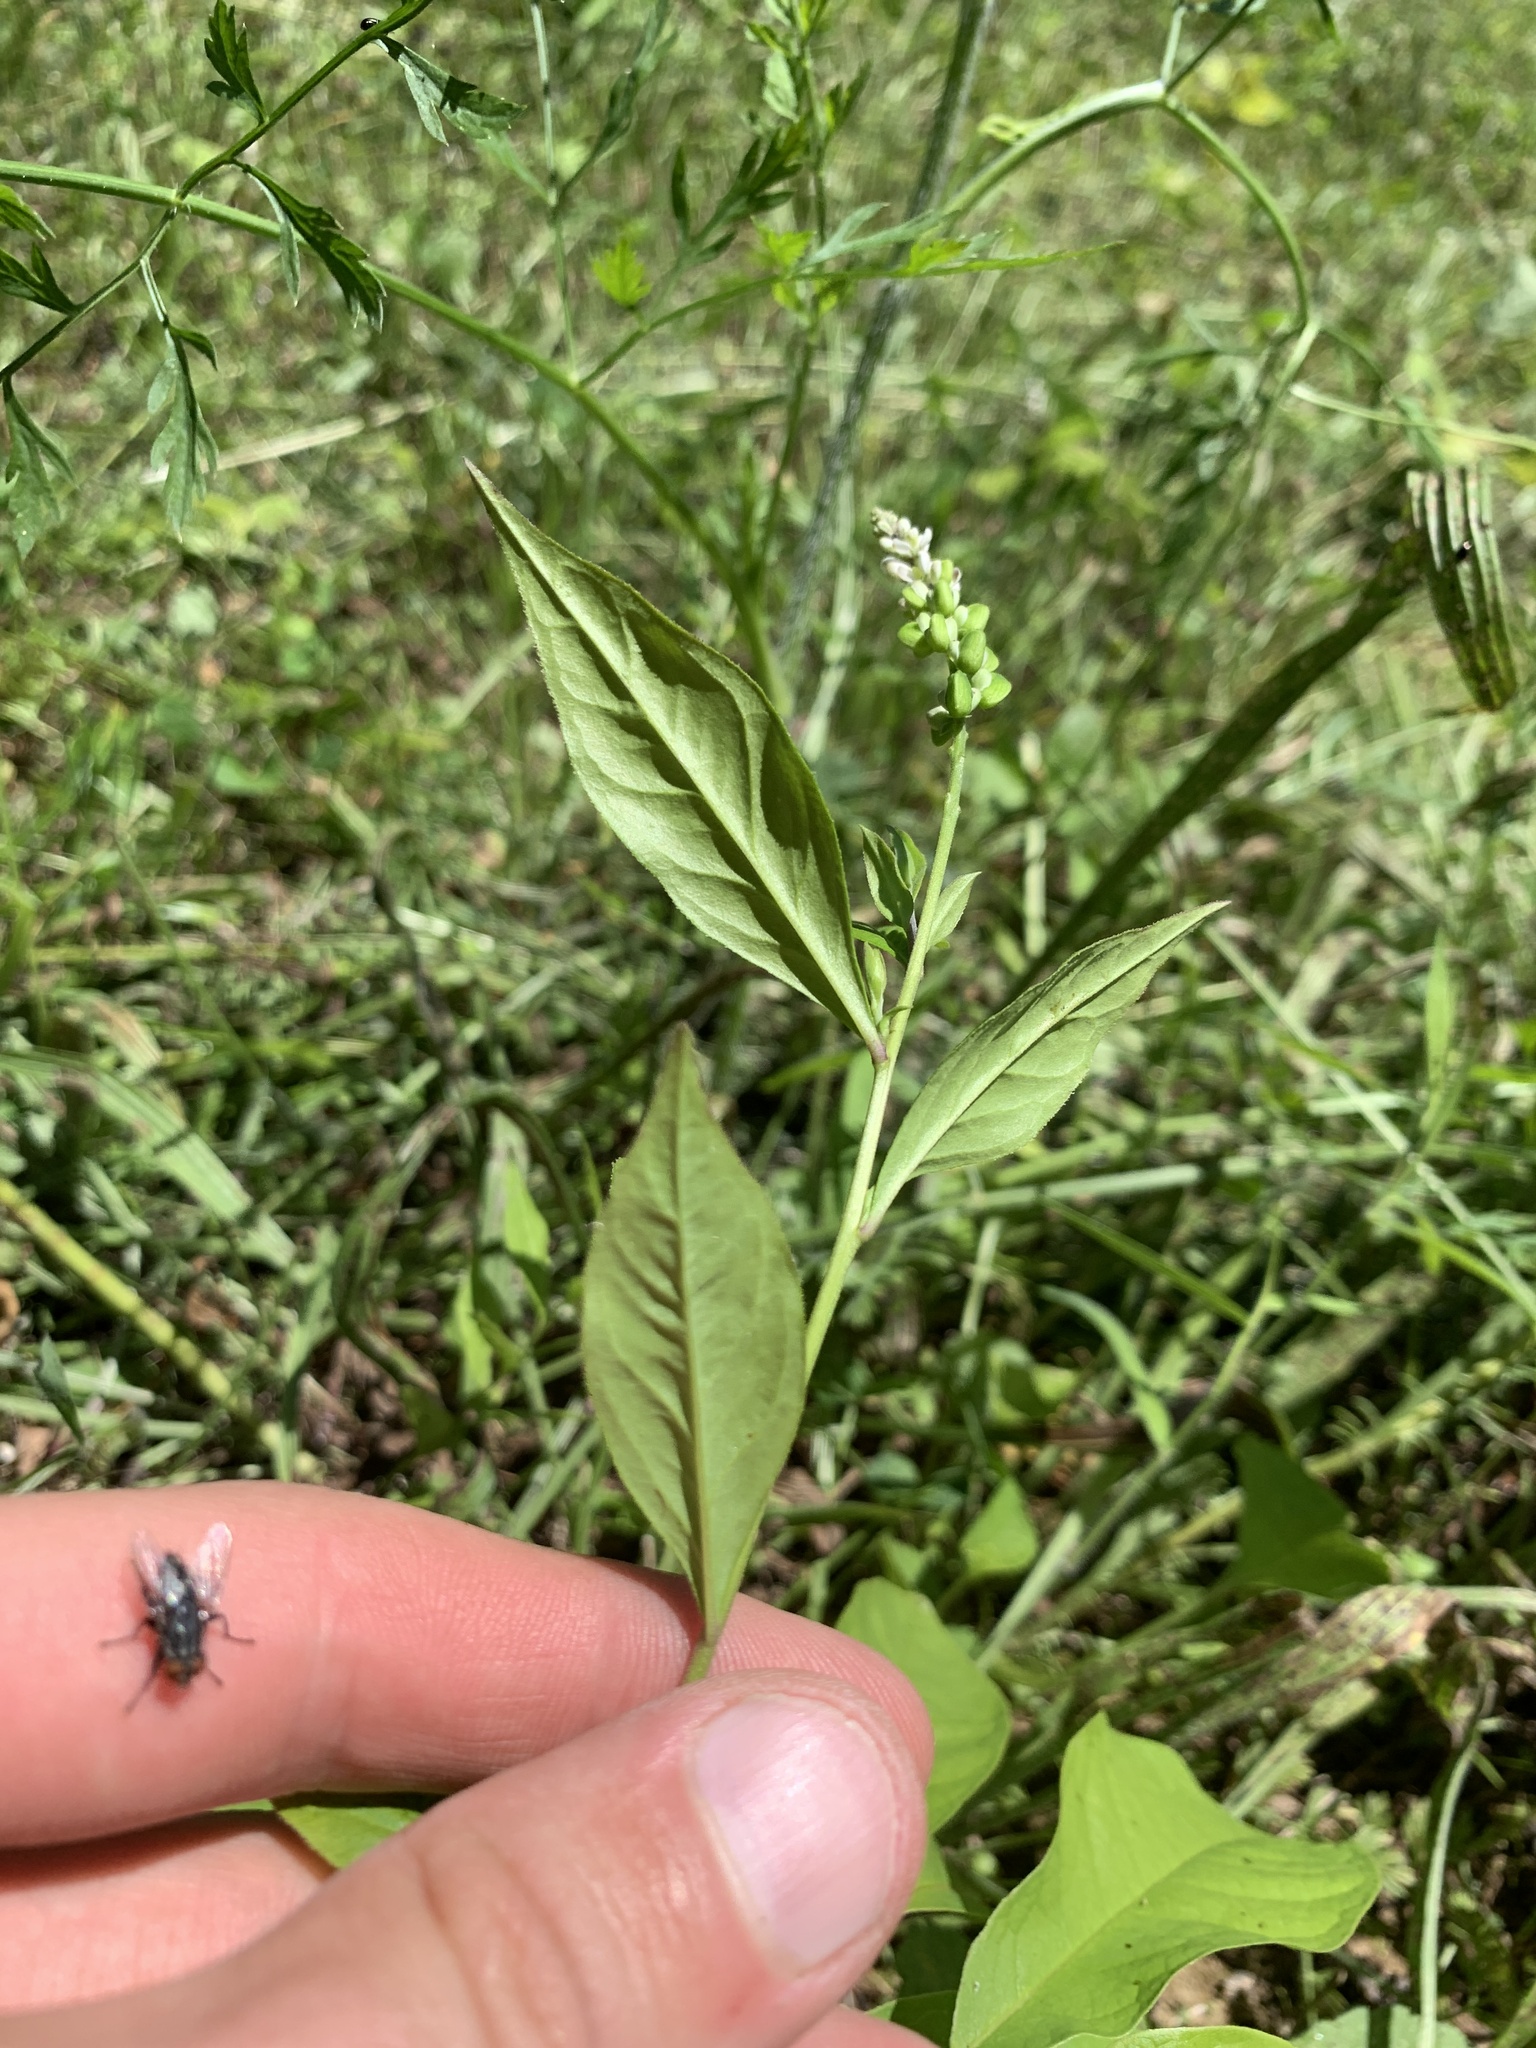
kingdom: Plantae
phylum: Tracheophyta
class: Magnoliopsida
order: Fabales
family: Polygalaceae
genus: Polygala
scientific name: Polygala senega
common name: Seneca snakeroot
